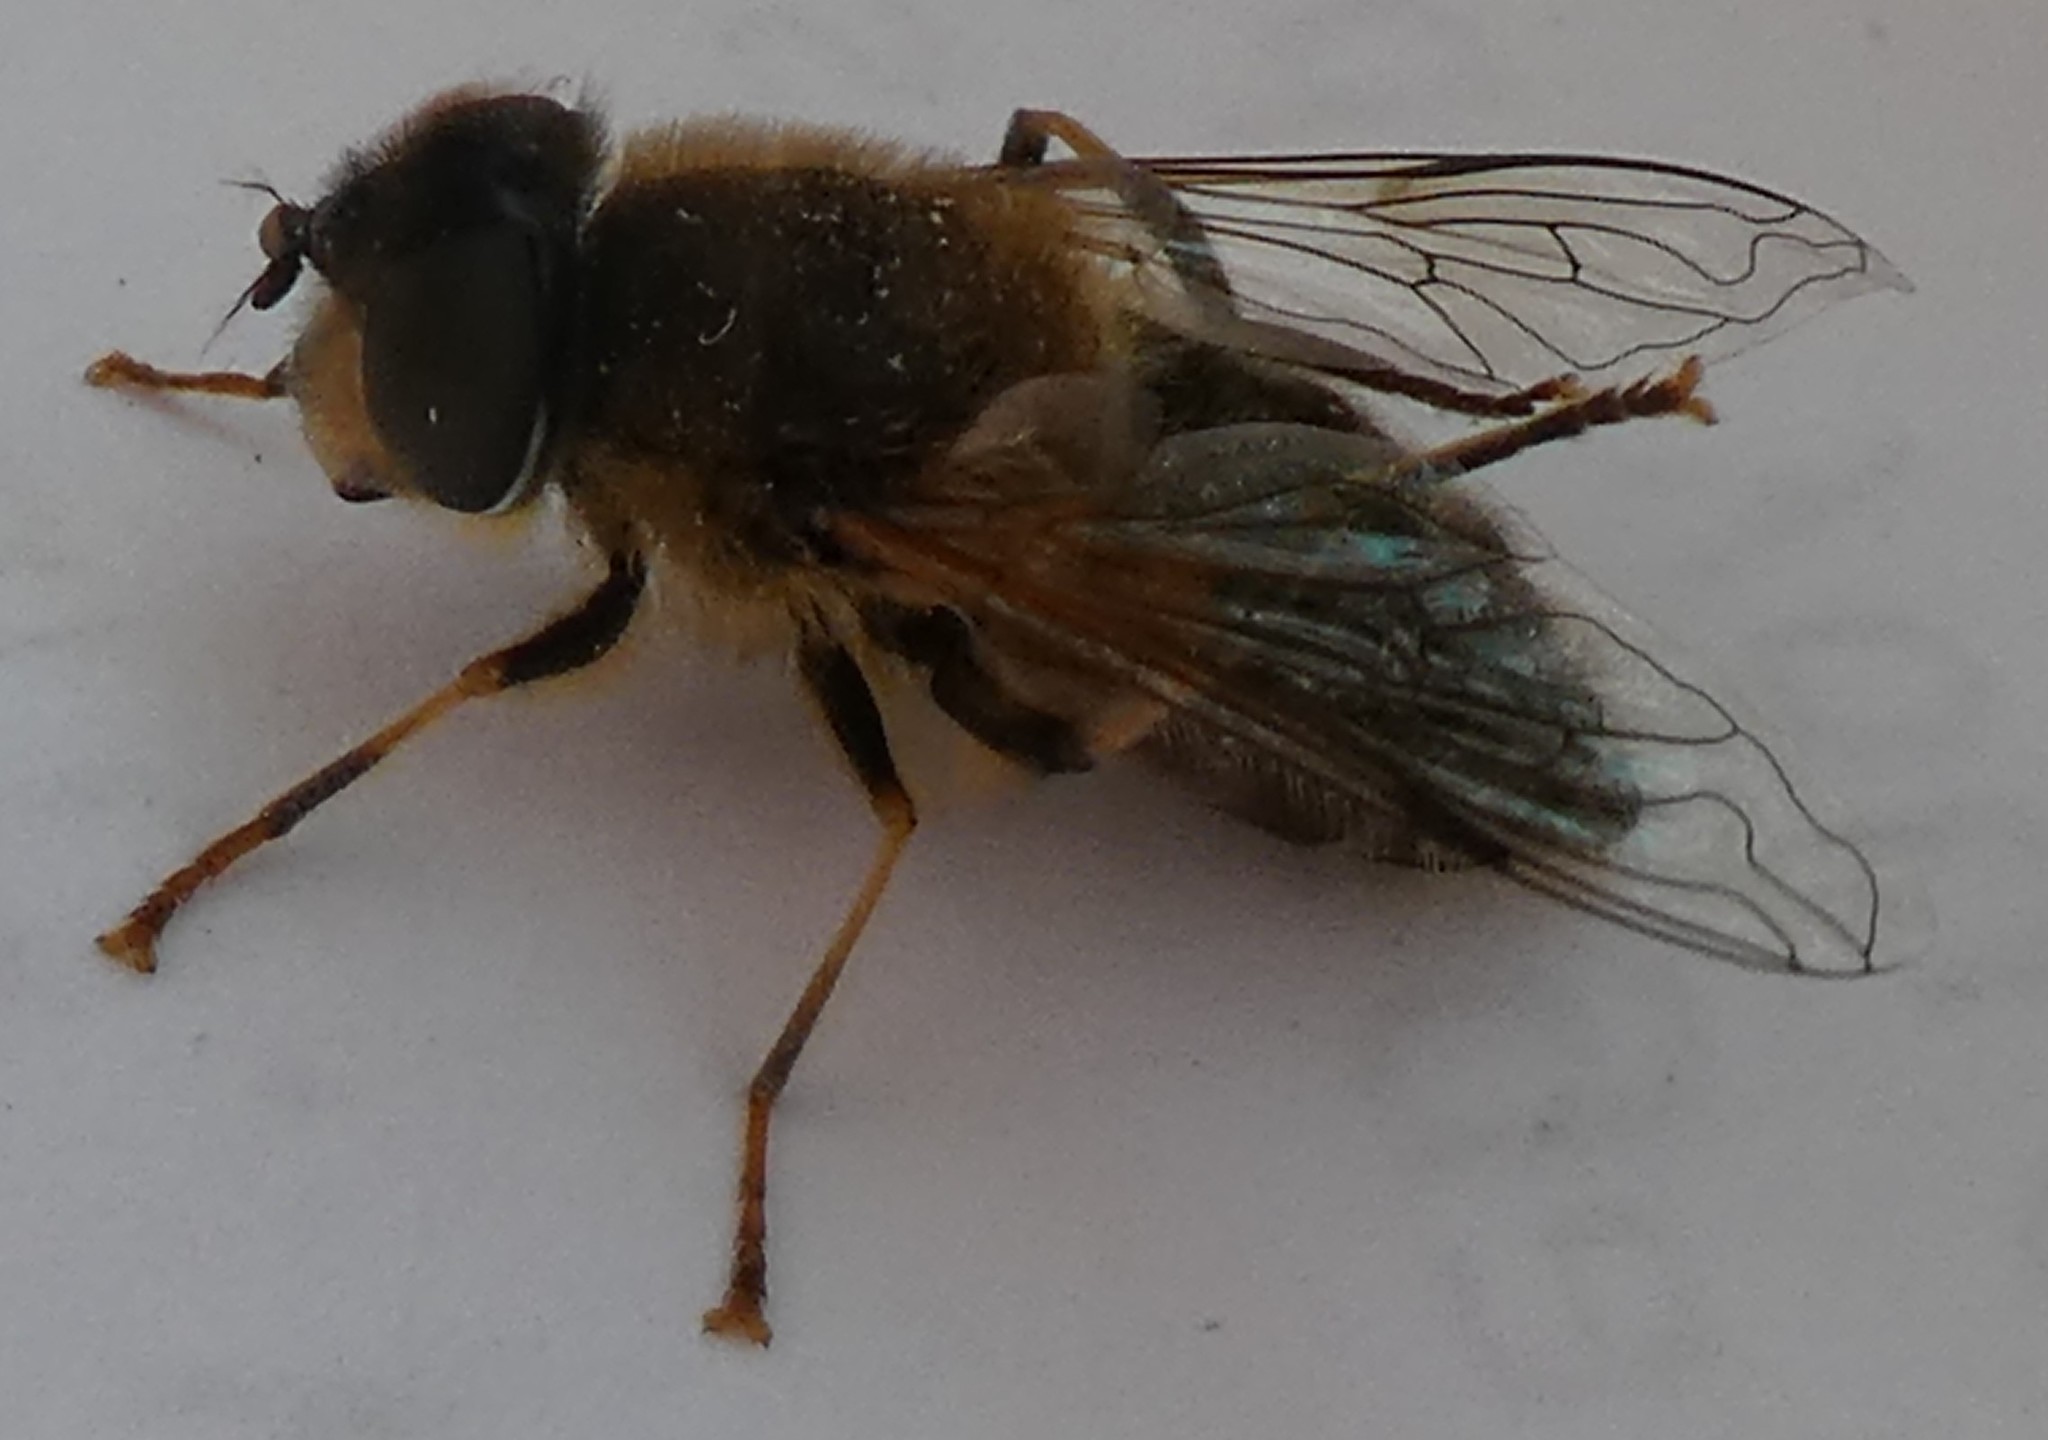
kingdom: Animalia
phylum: Arthropoda
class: Insecta
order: Diptera
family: Syrphidae
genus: Eristalis
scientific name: Eristalis pertinax
